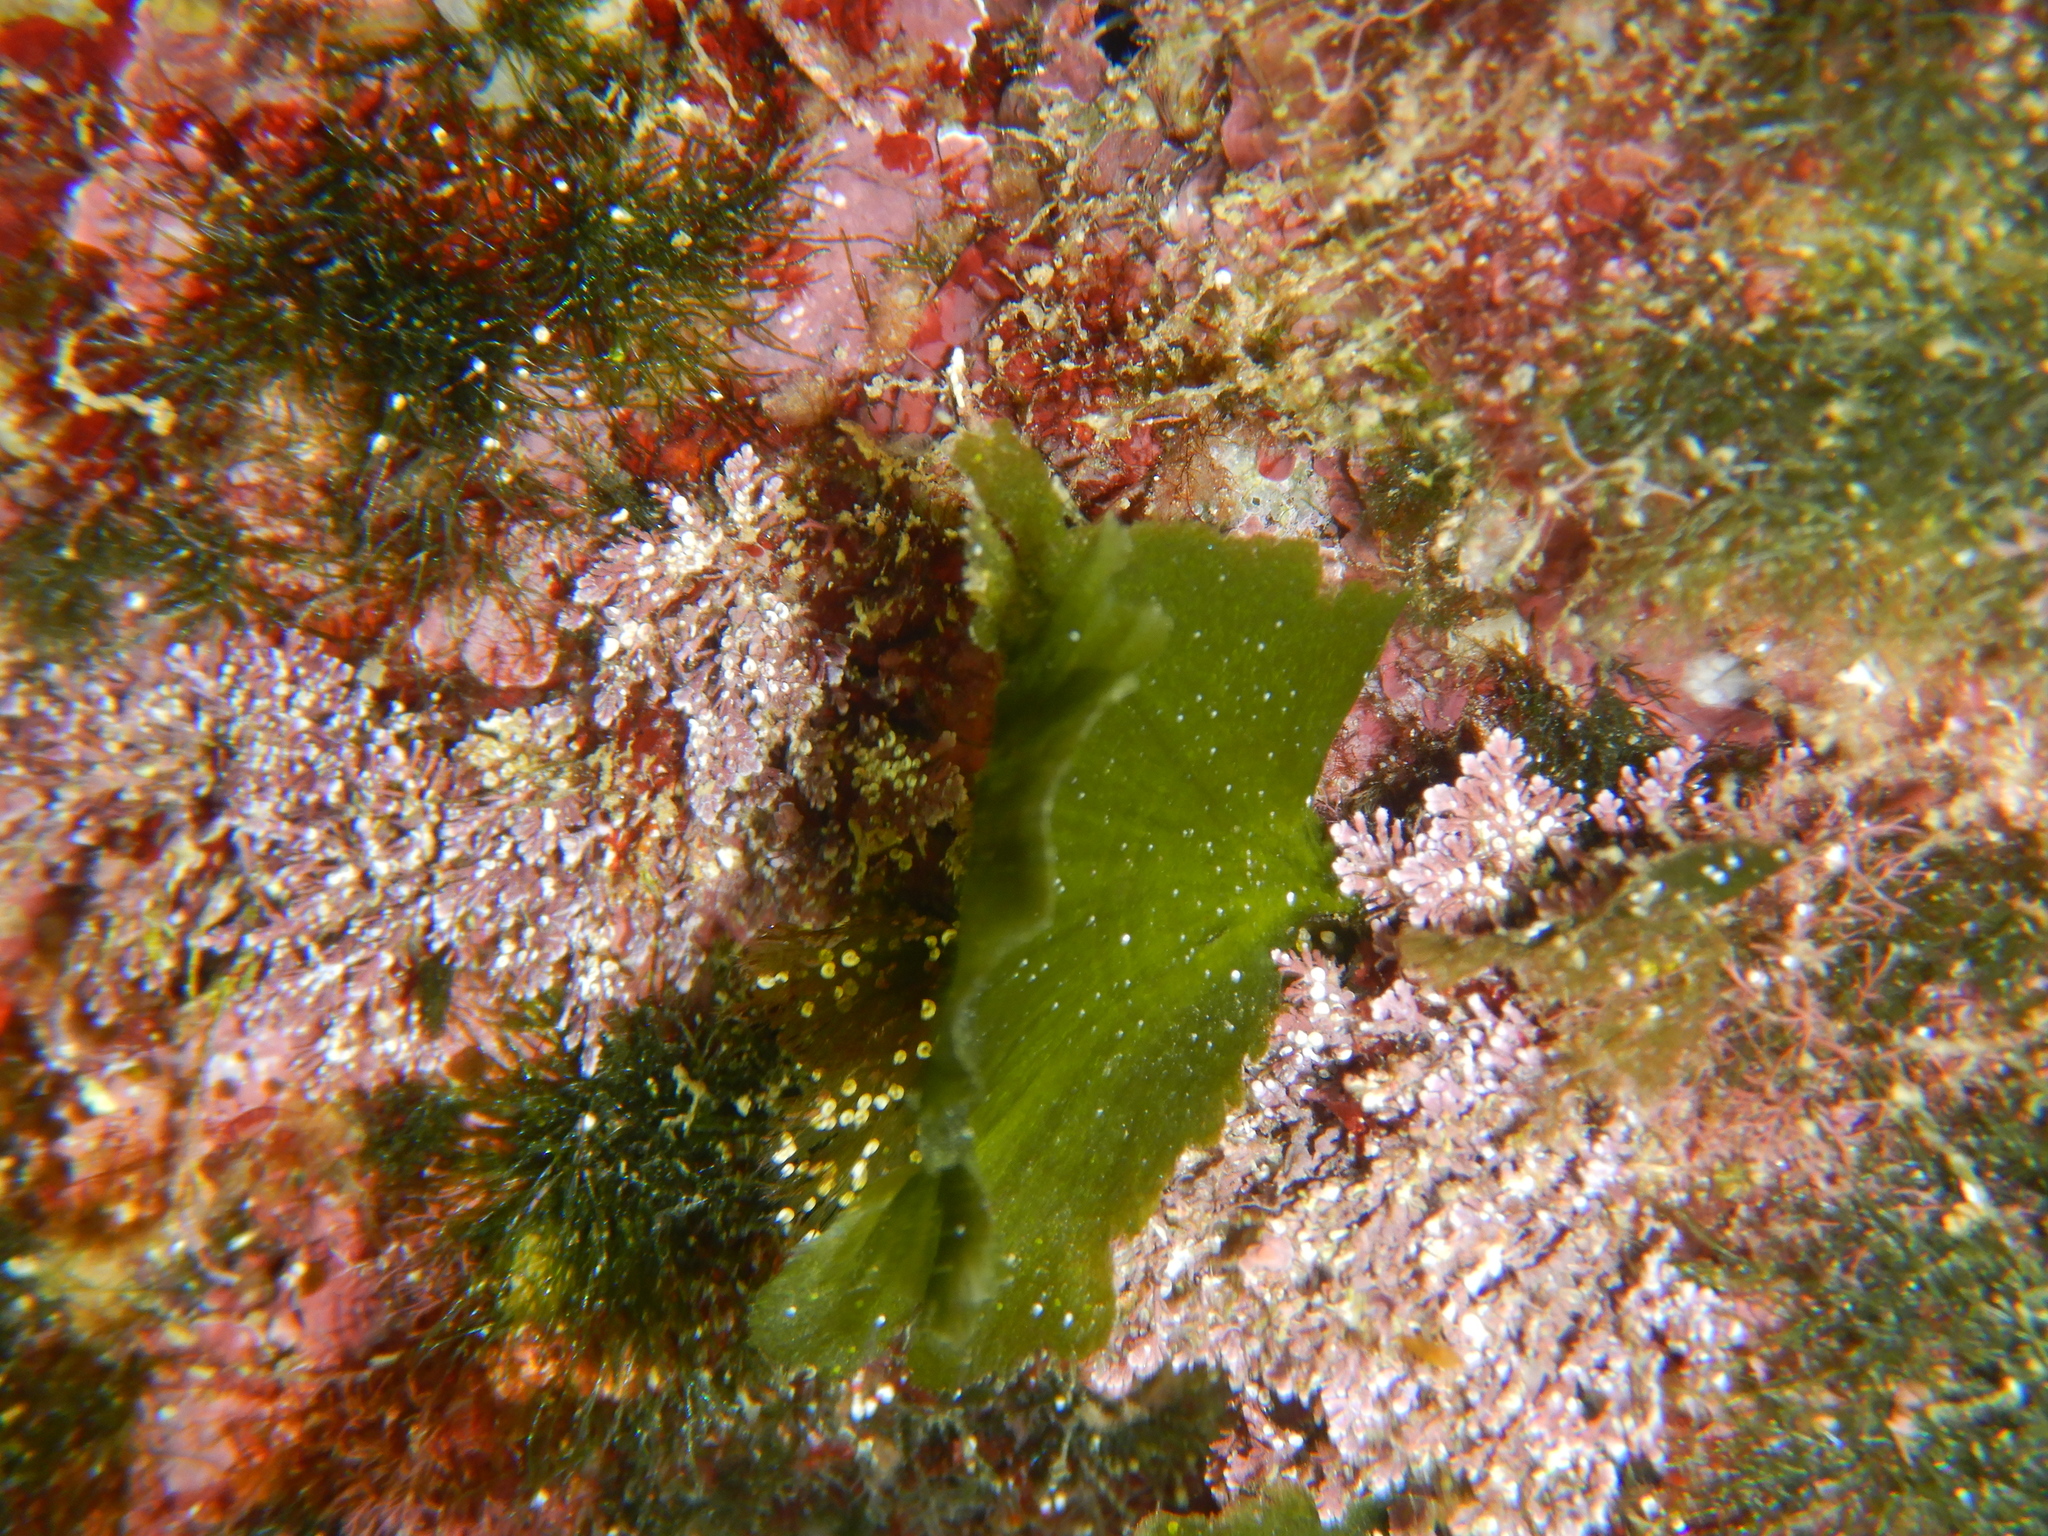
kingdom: Plantae
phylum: Chlorophyta
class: Ulvophyceae
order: Bryopsidales
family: Codiaceae
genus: Codium
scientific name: Codium Flabellia petiolata
